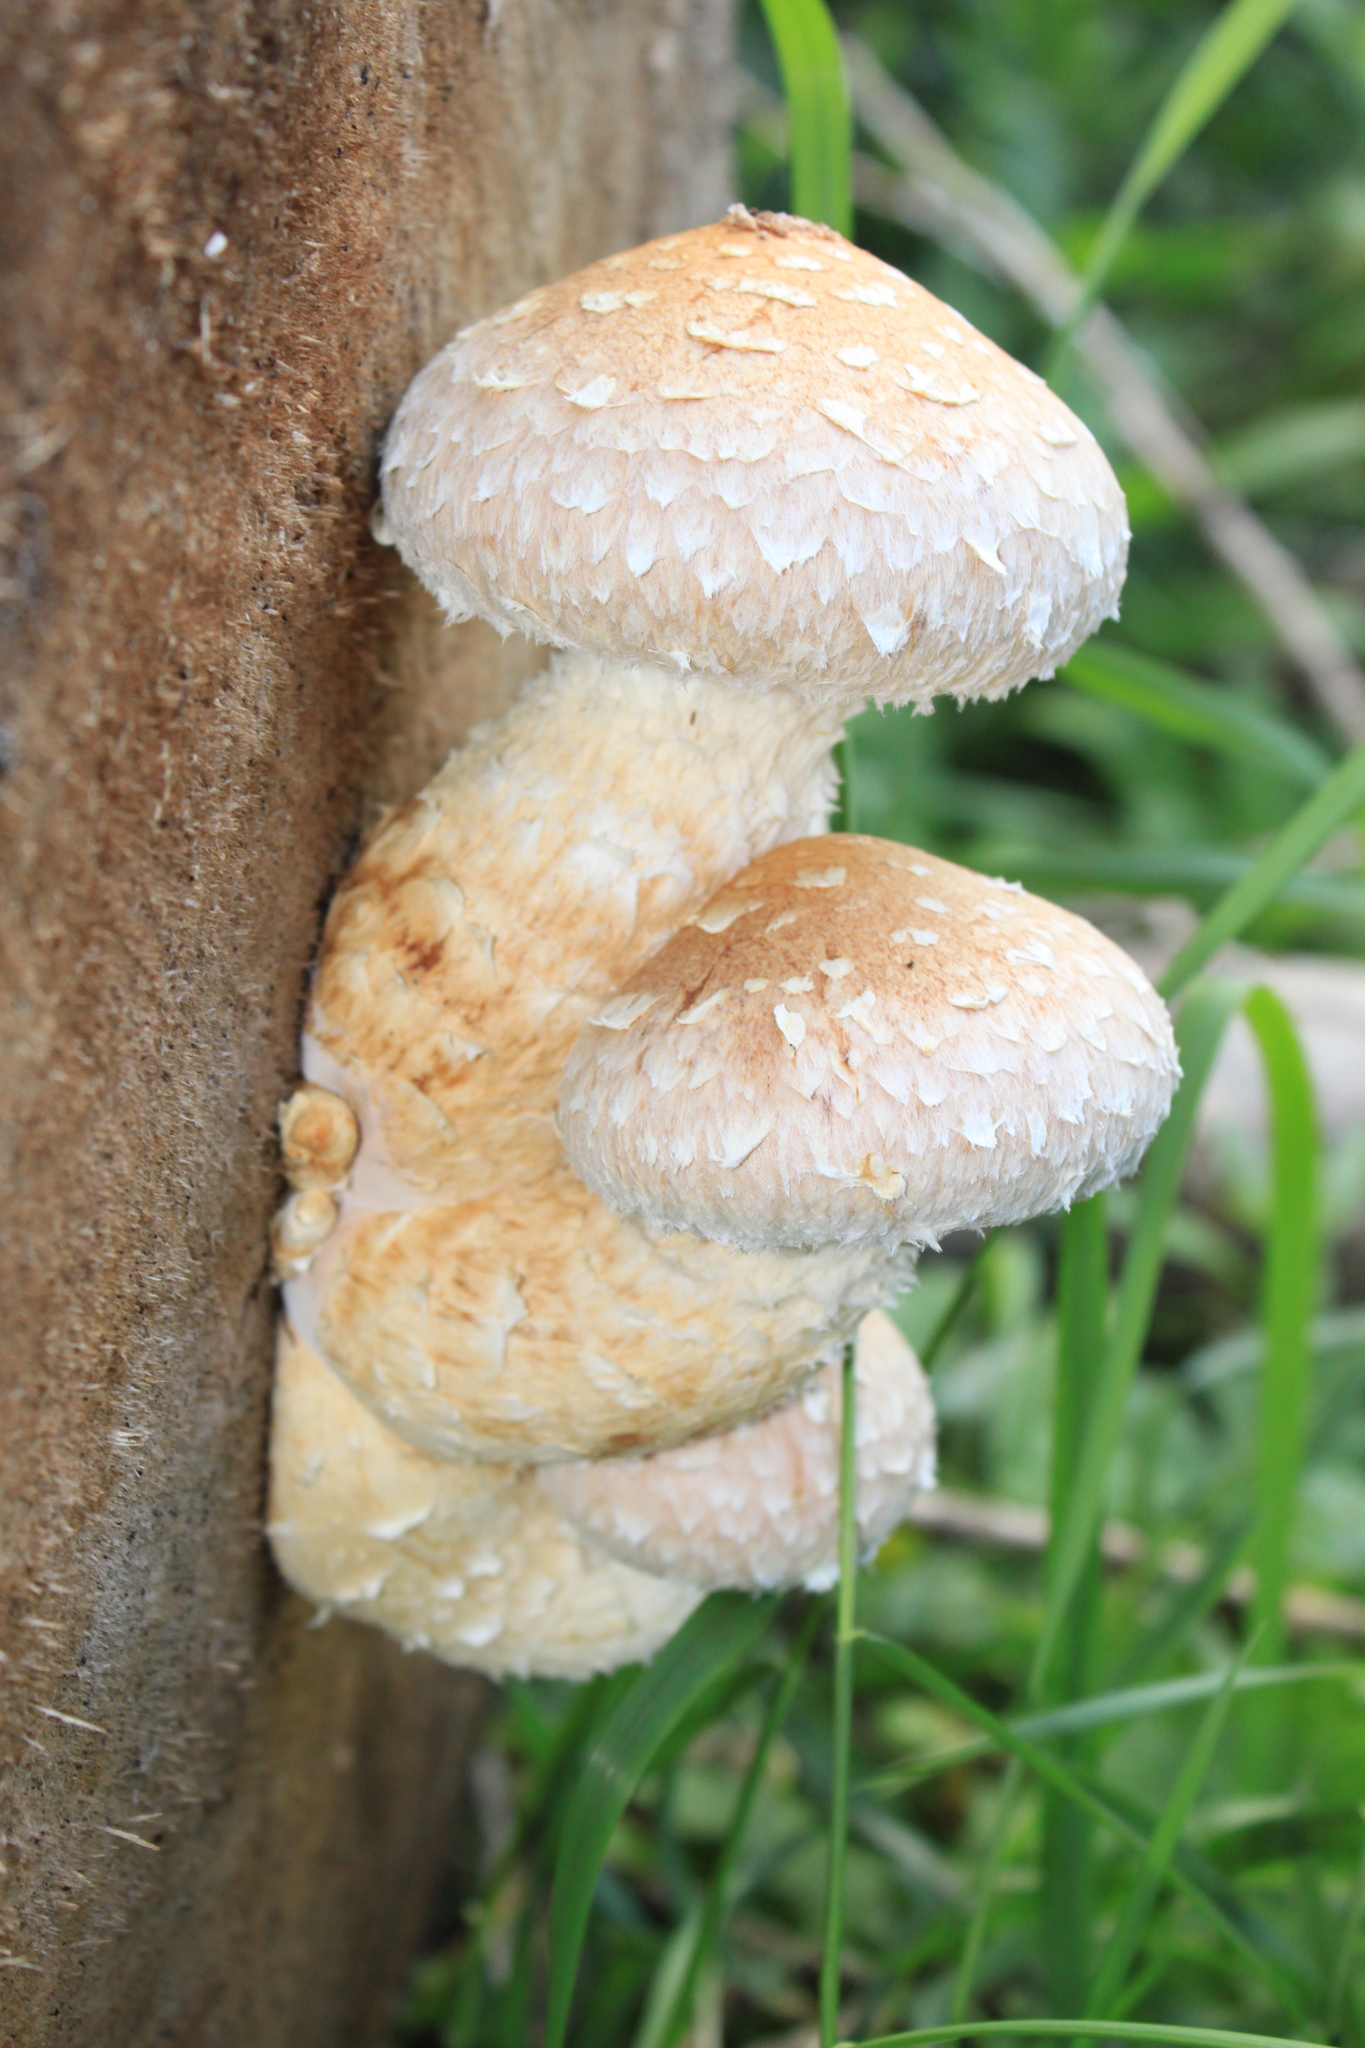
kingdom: Fungi
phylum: Basidiomycota
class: Agaricomycetes
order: Agaricales
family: Strophariaceae
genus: Pholiota
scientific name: Pholiota populnea
